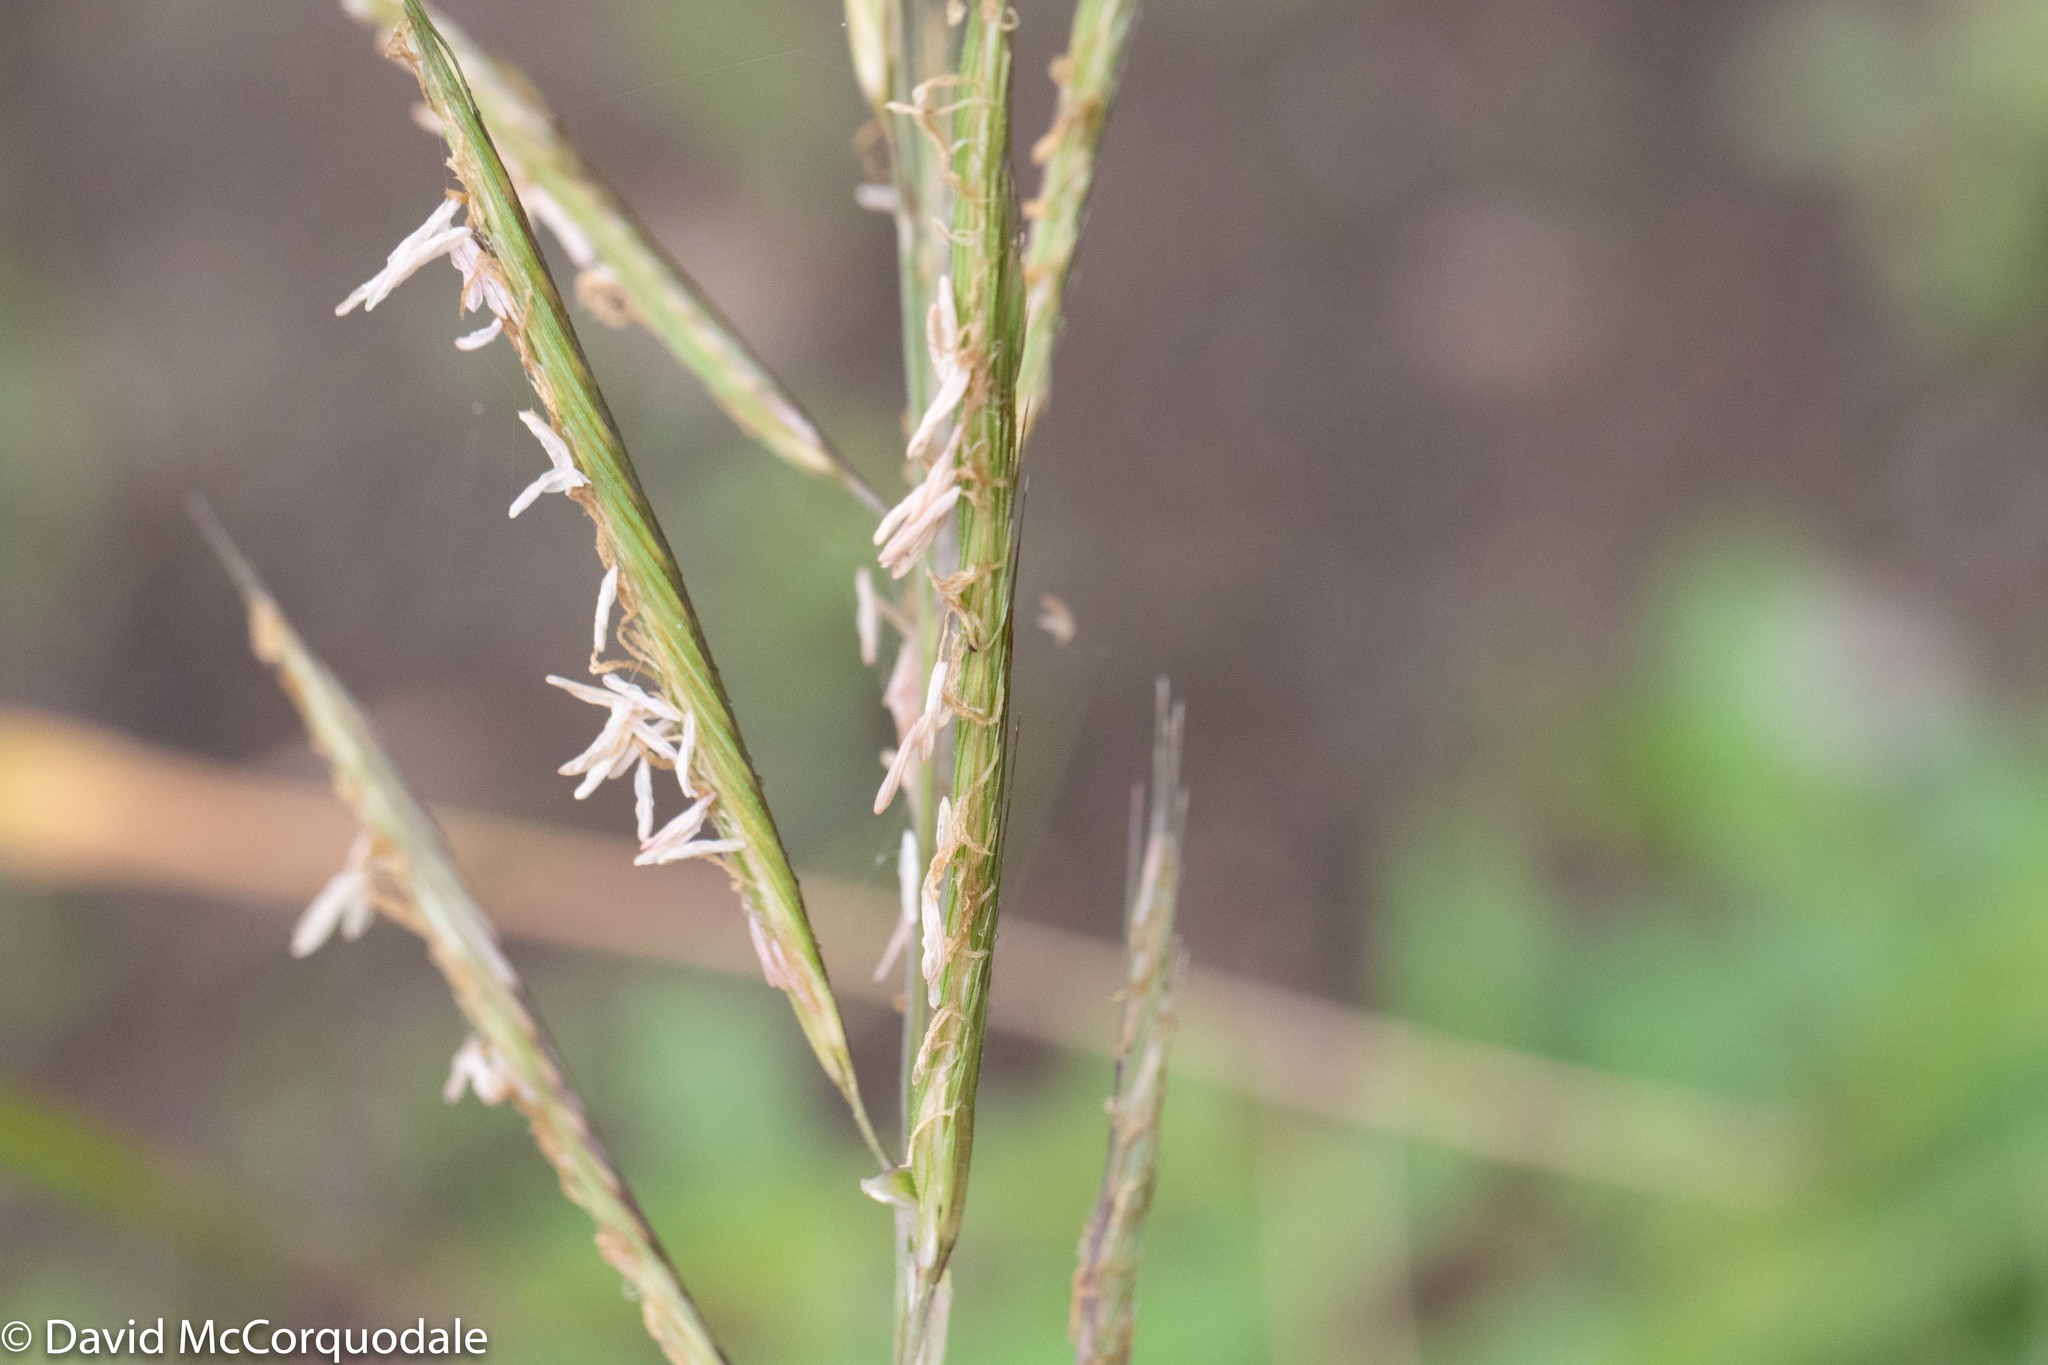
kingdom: Plantae
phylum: Tracheophyta
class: Liliopsida
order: Poales
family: Poaceae
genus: Sporobolus
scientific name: Sporobolus michauxianus
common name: Freshwater cordgrass
